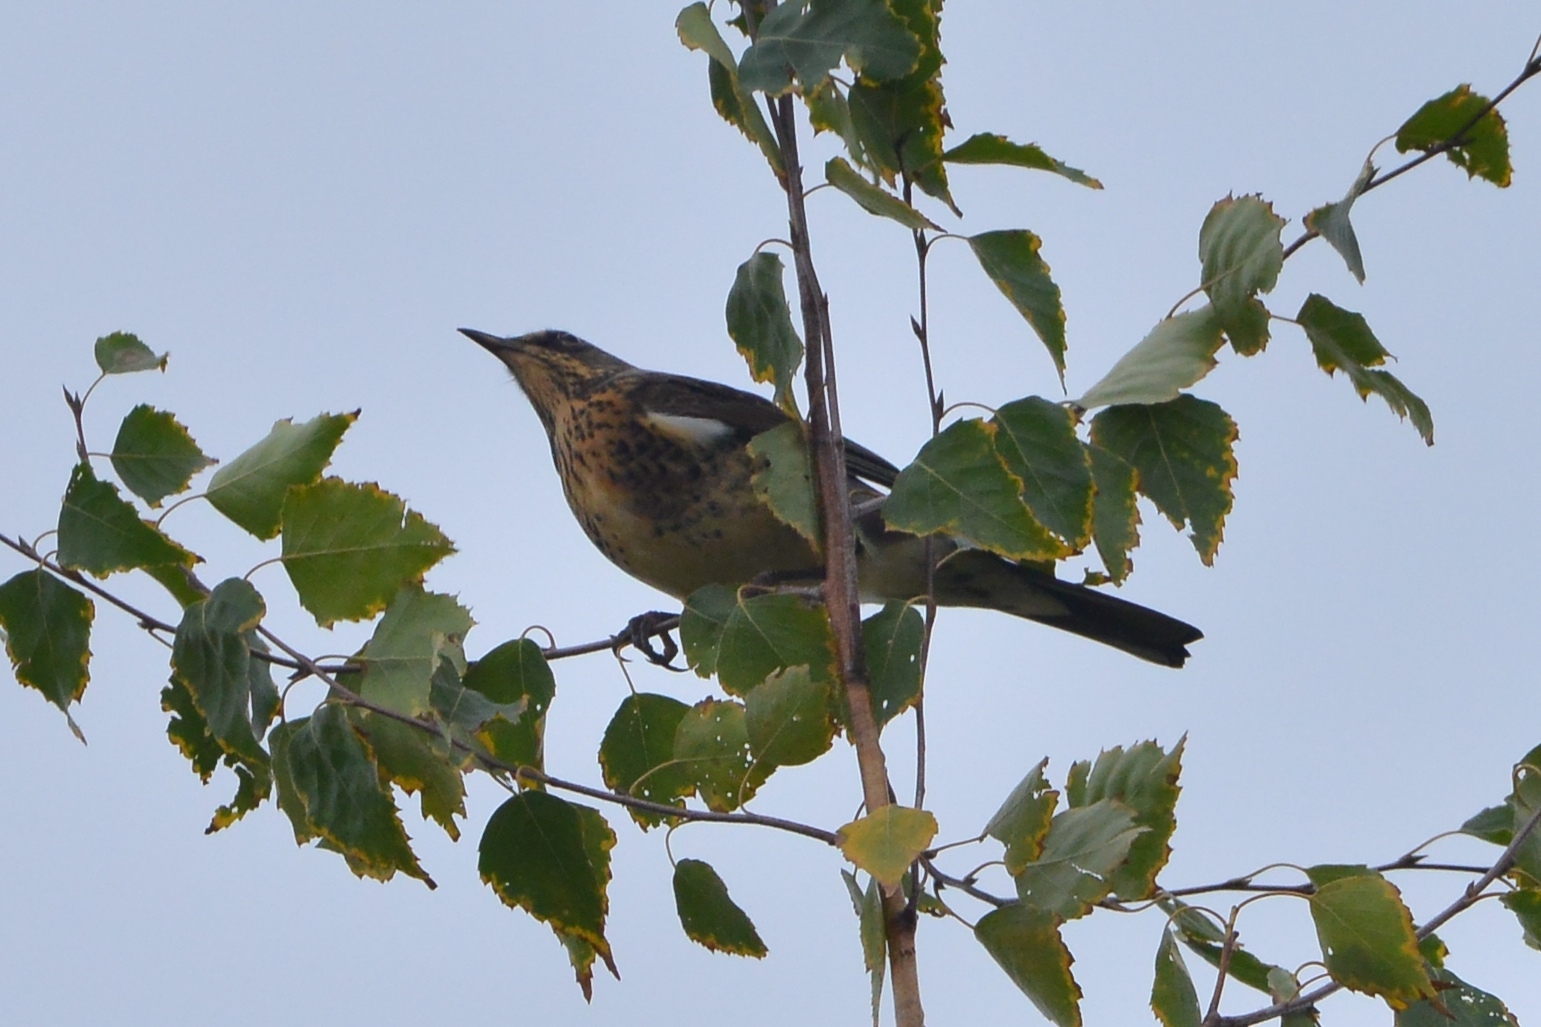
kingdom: Animalia
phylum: Chordata
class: Aves
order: Passeriformes
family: Turdidae
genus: Turdus
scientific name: Turdus pilaris
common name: Fieldfare
